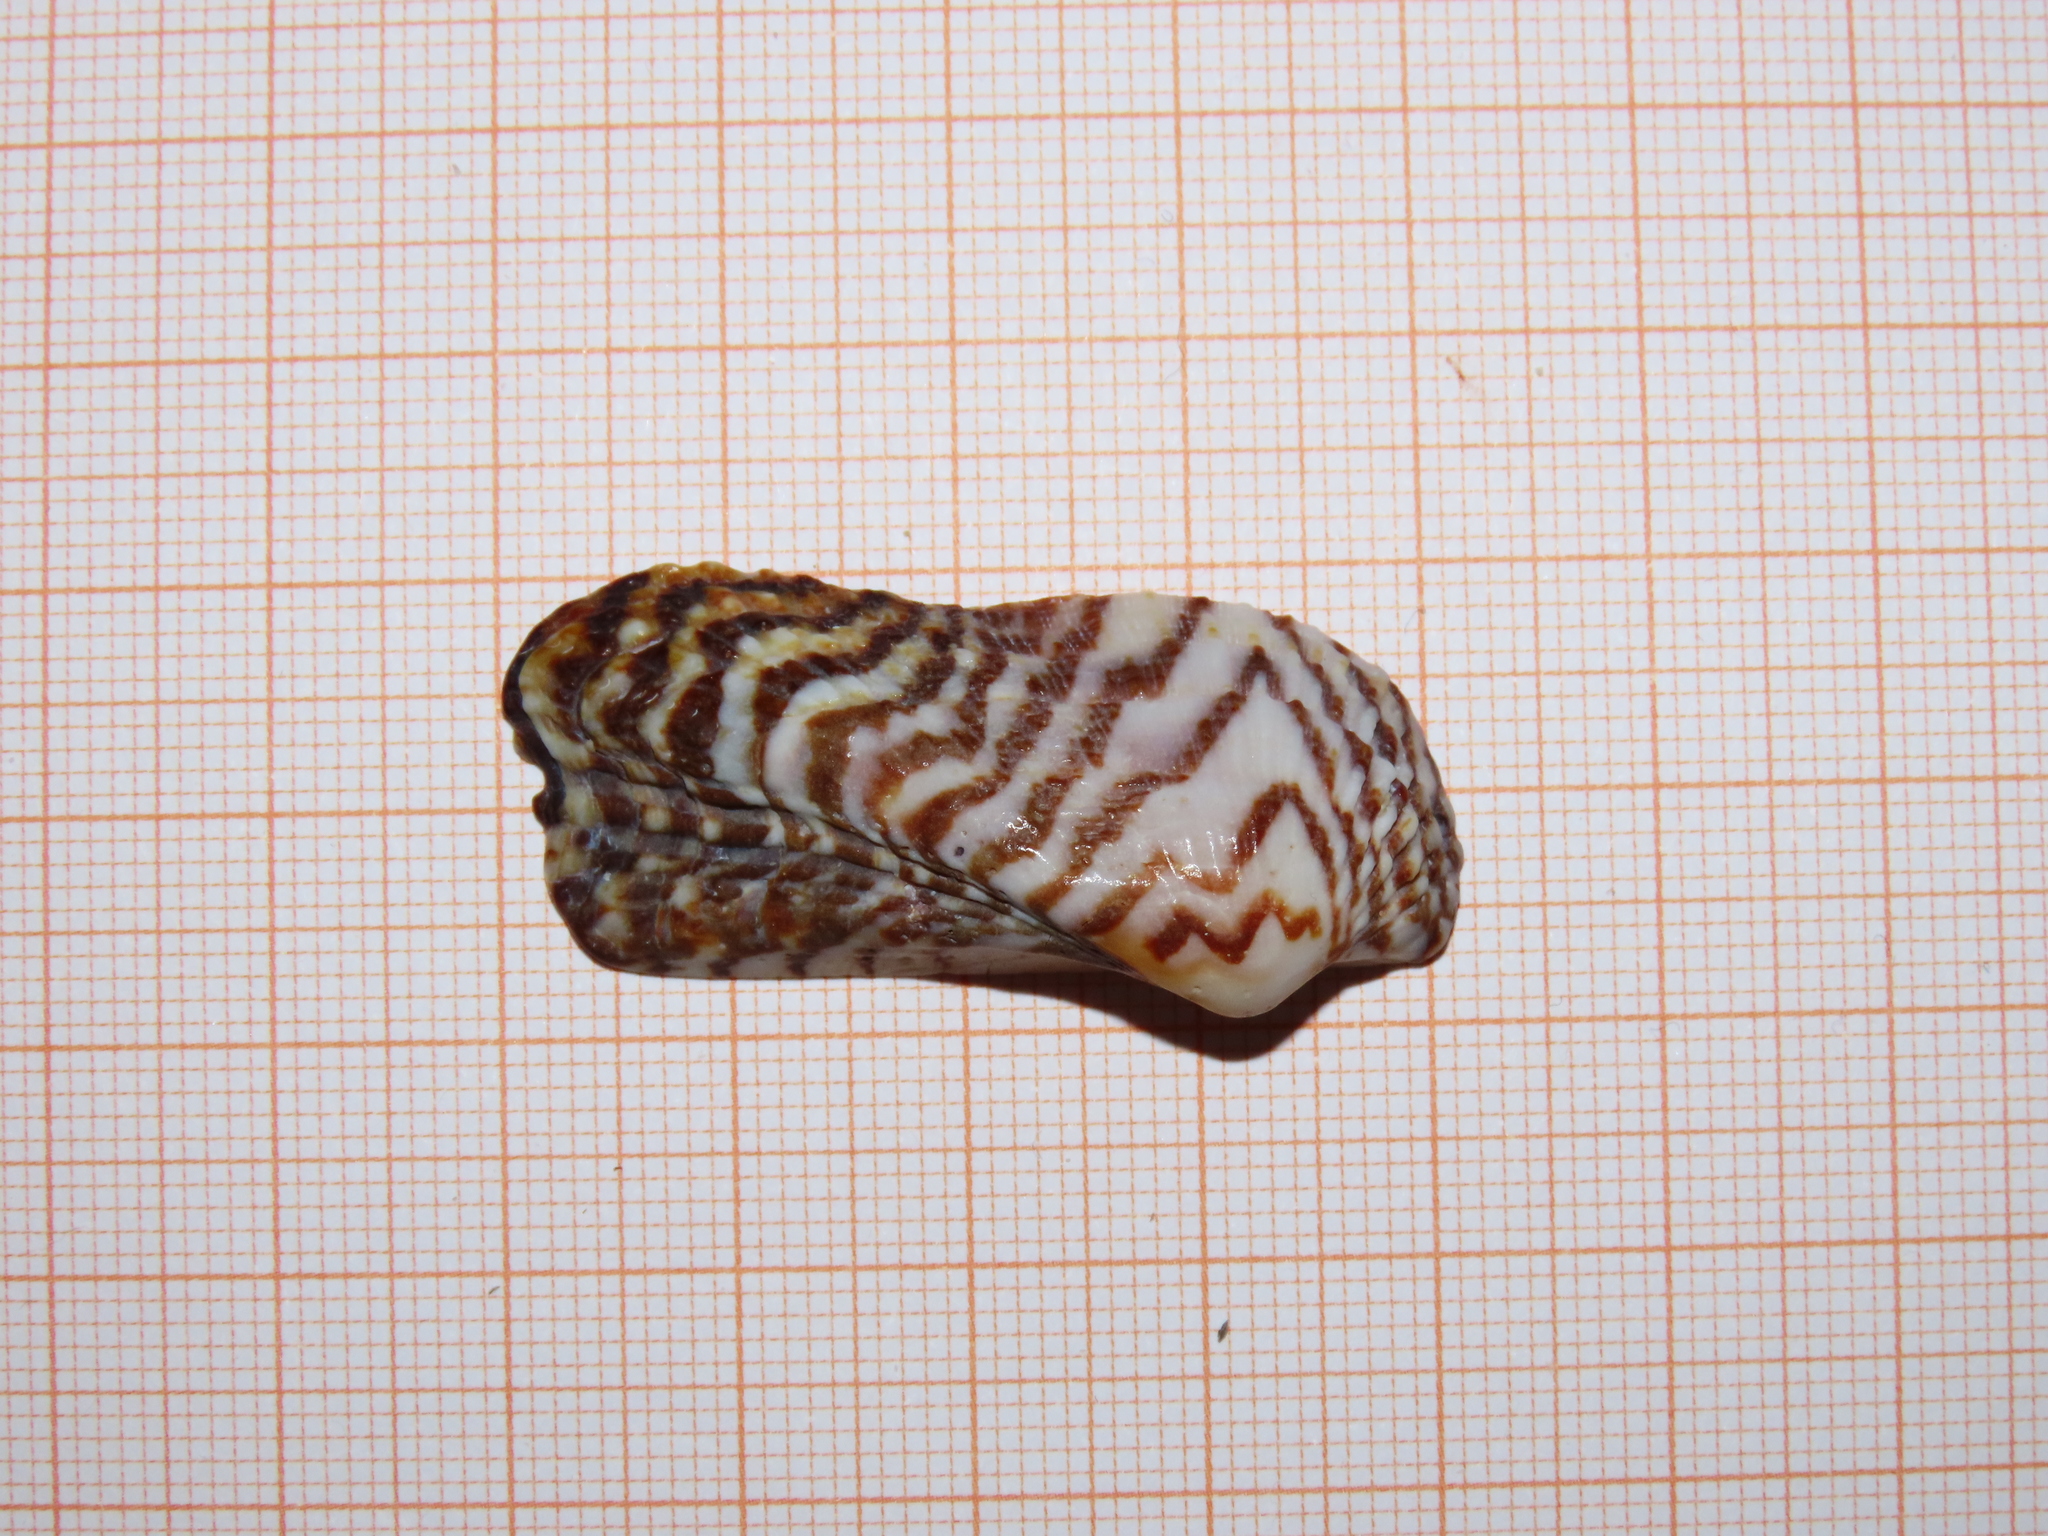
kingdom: Animalia
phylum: Mollusca
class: Bivalvia
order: Arcida
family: Arcidae
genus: Arca
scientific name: Arca noae
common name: Noah's arch
